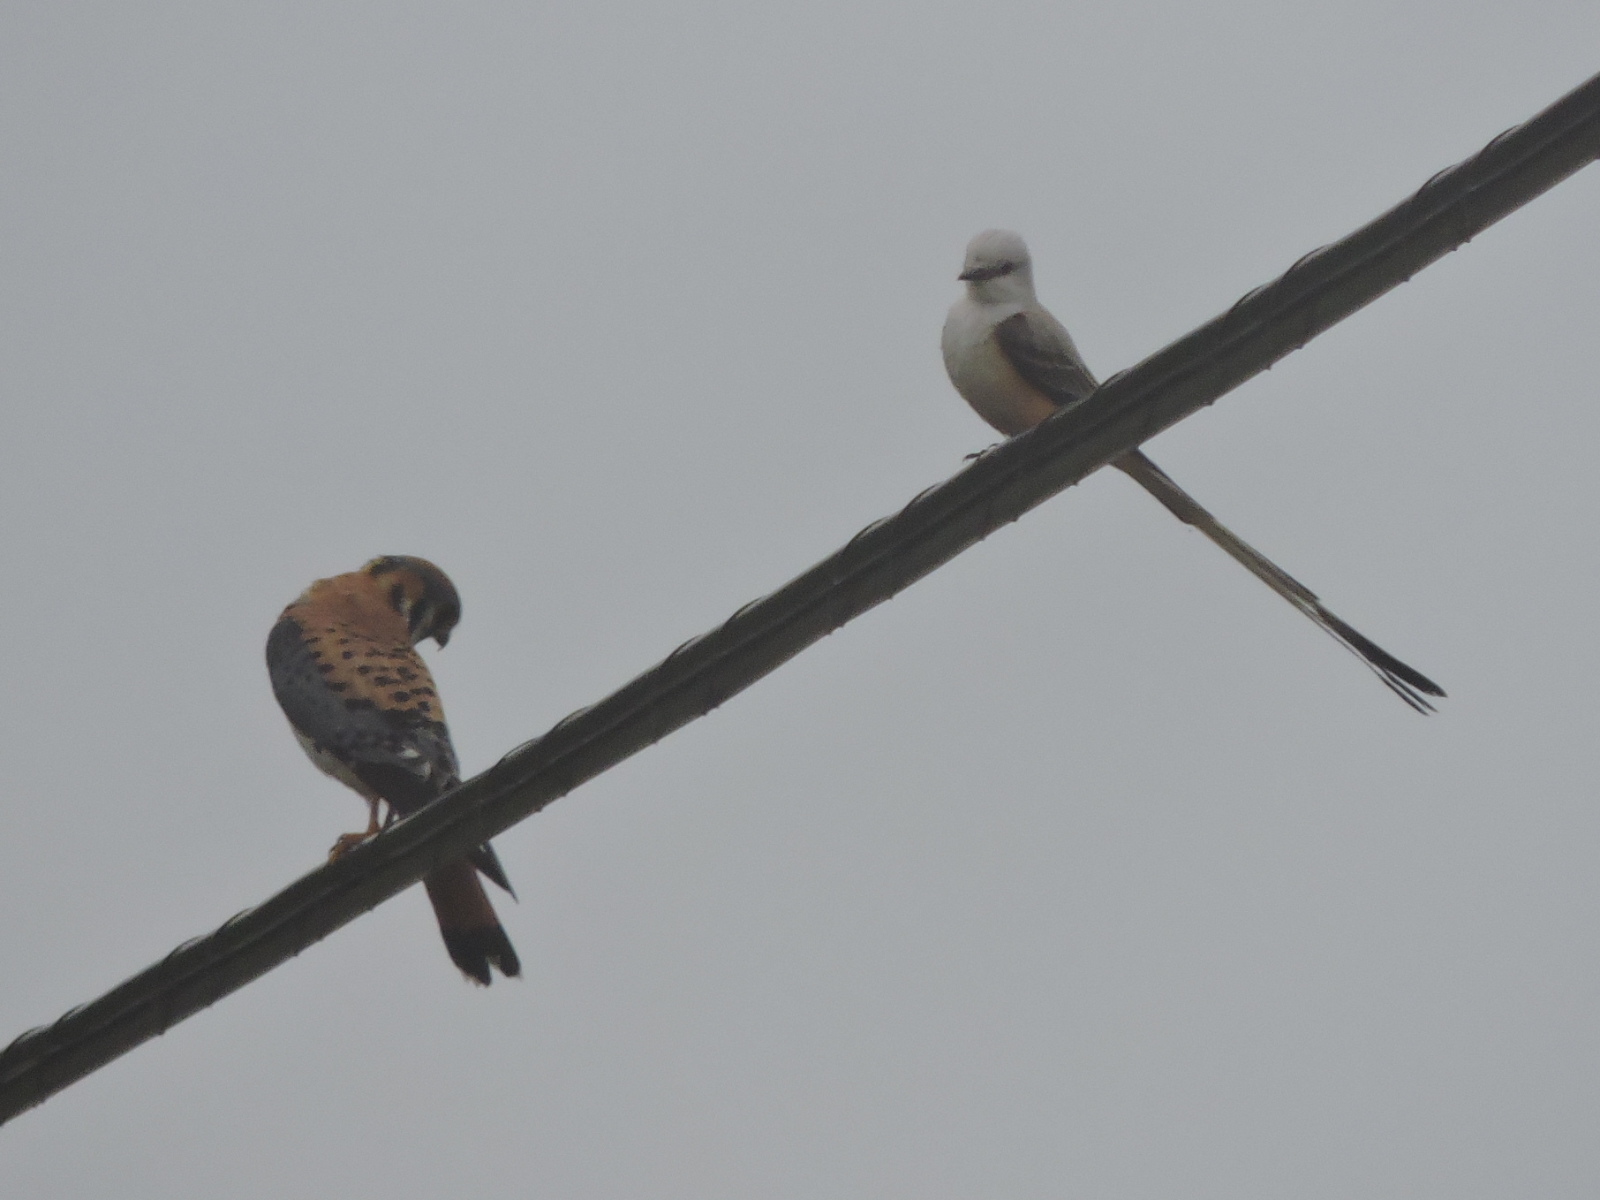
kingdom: Animalia
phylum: Chordata
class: Aves
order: Falconiformes
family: Falconidae
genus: Falco
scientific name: Falco sparverius
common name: American kestrel
